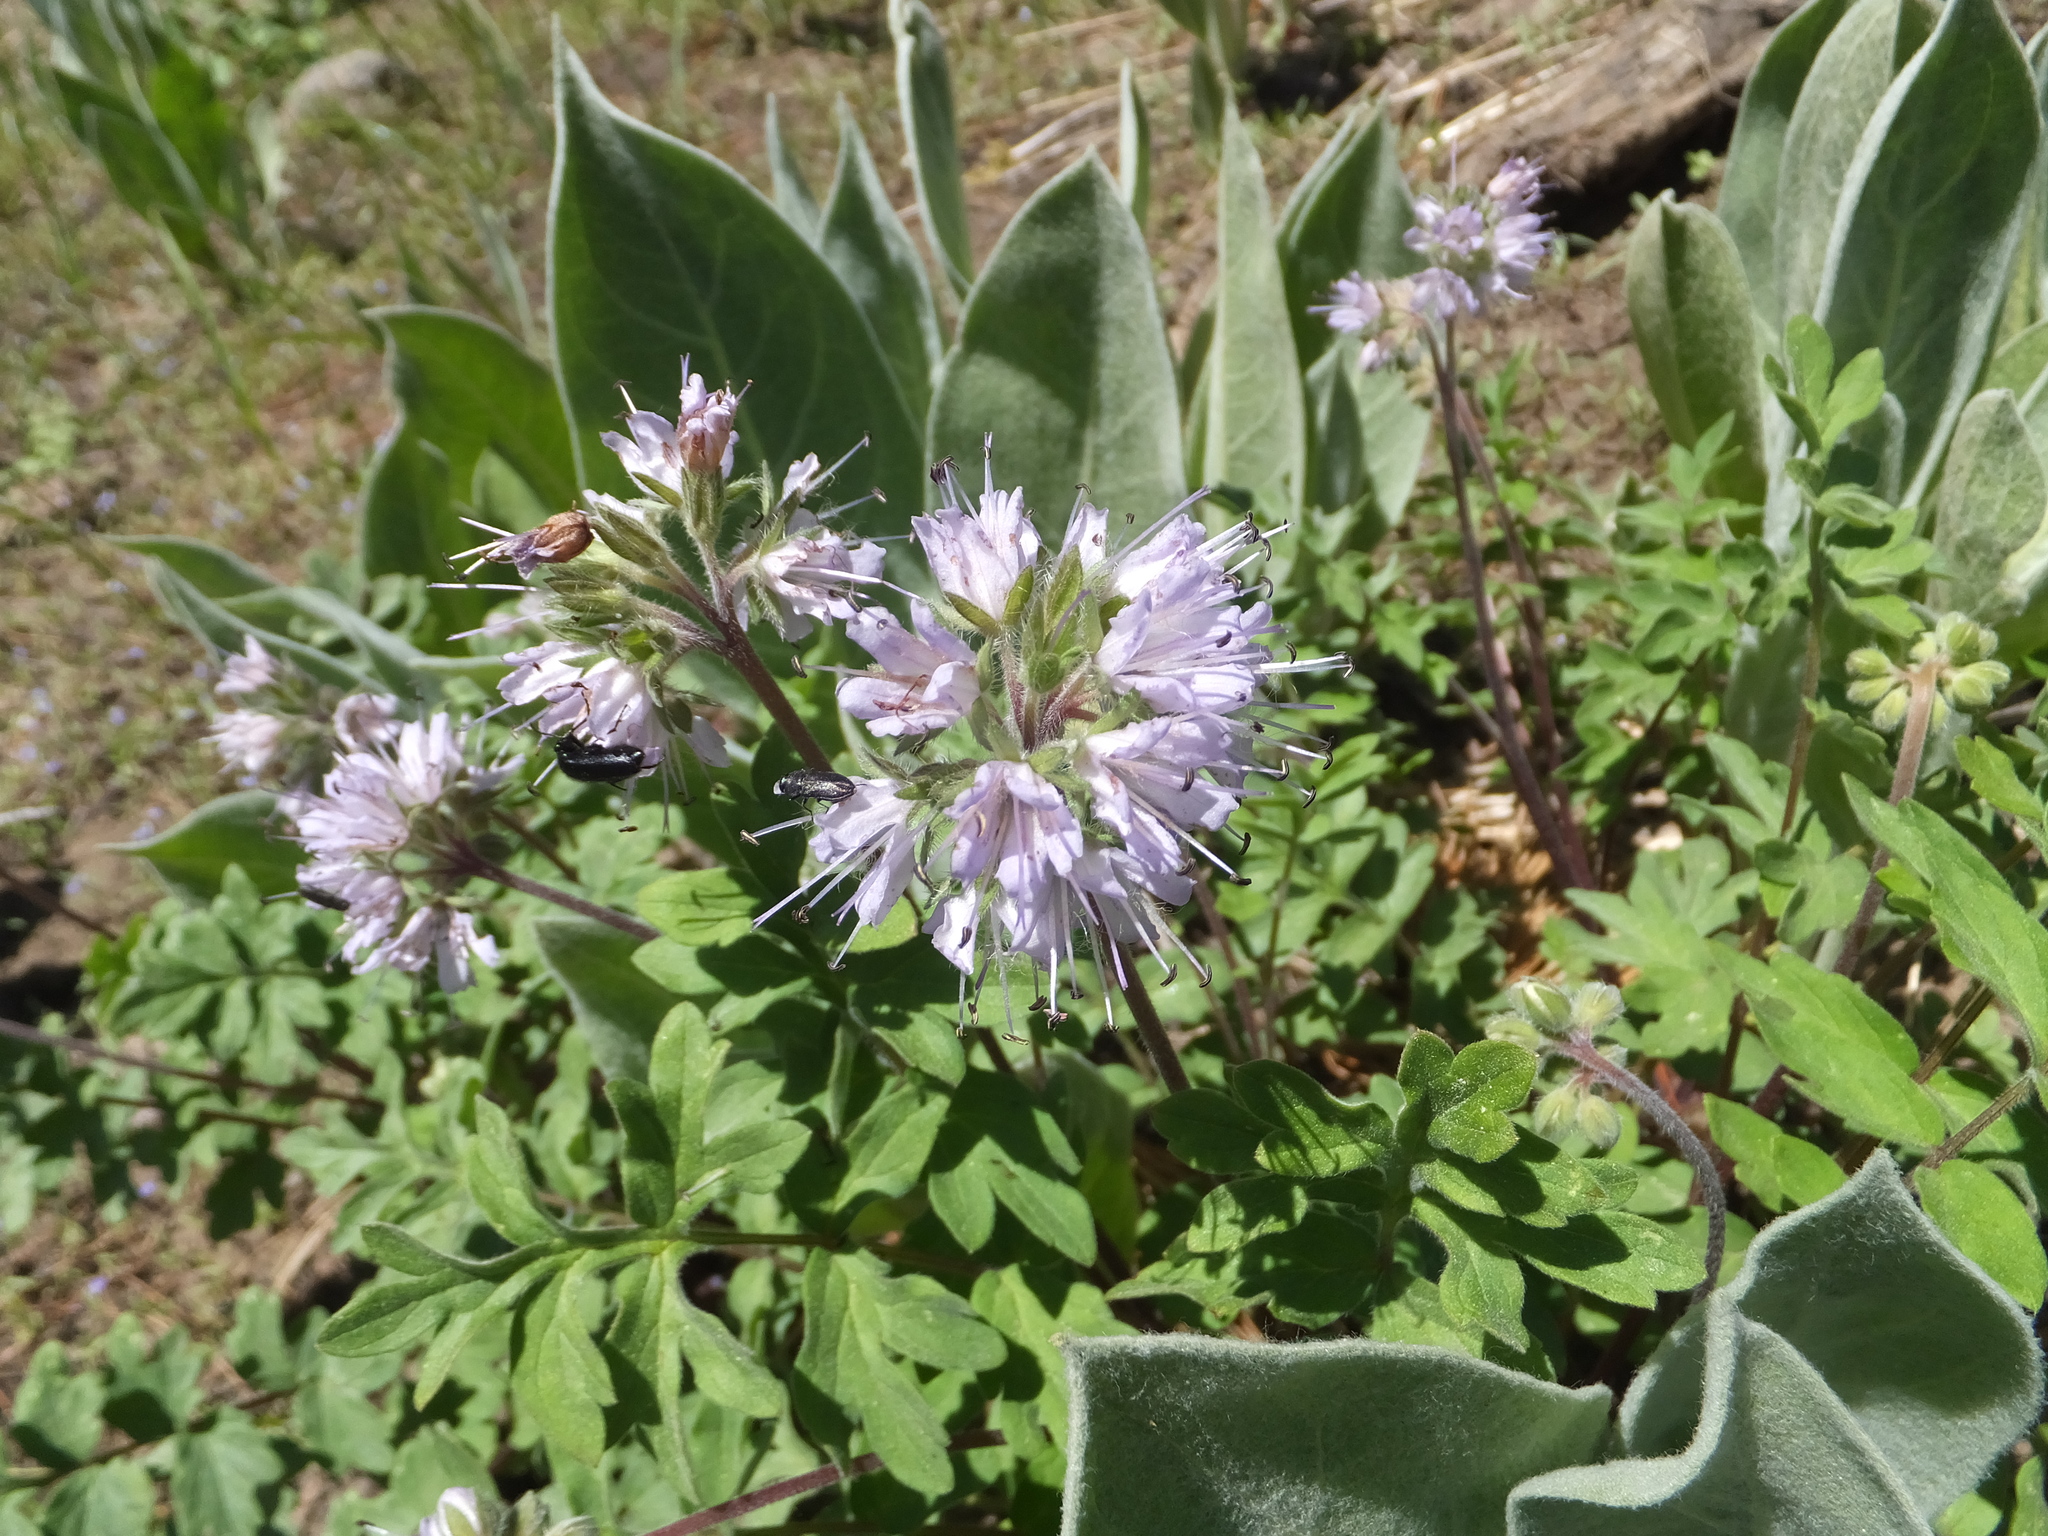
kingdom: Plantae
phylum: Tracheophyta
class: Magnoliopsida
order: Boraginales
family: Hydrophyllaceae
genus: Hydrophyllum
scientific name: Hydrophyllum occidentale
